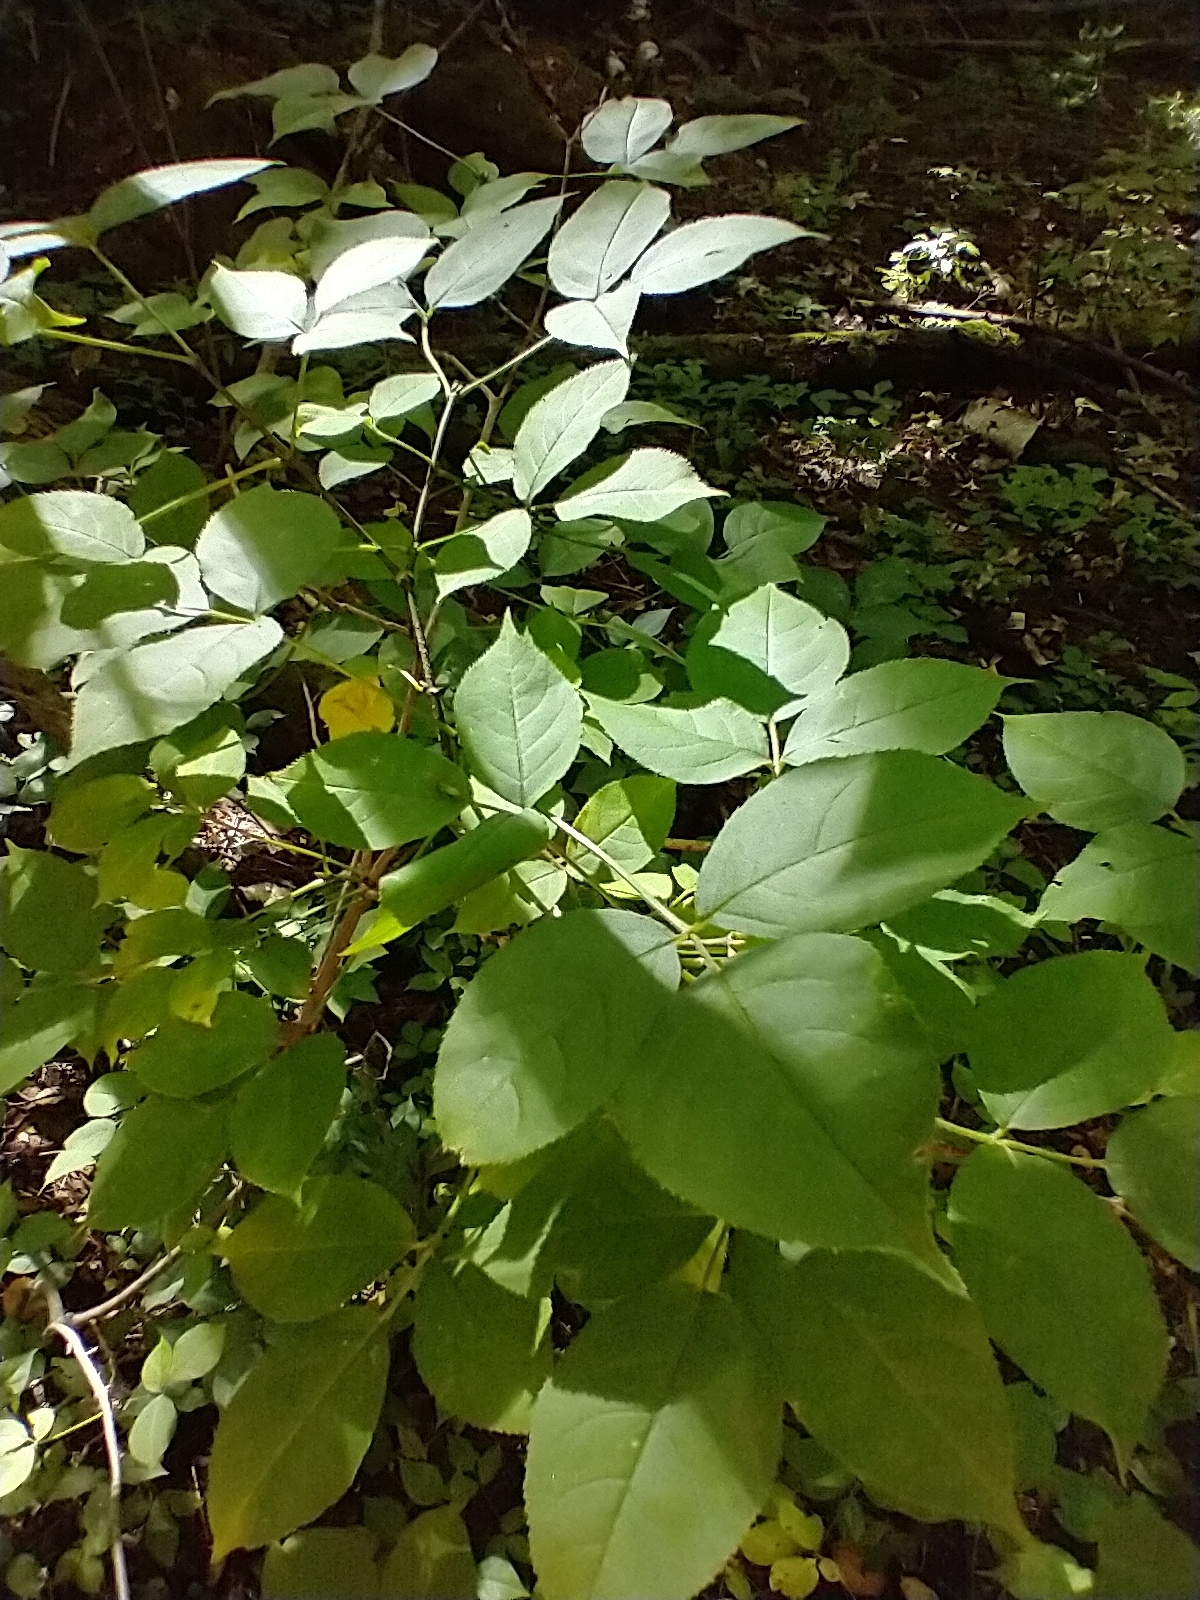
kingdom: Plantae
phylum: Tracheophyta
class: Magnoliopsida
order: Crossosomatales
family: Staphyleaceae
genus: Staphylea
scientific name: Staphylea trifolia
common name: American bladdernut
